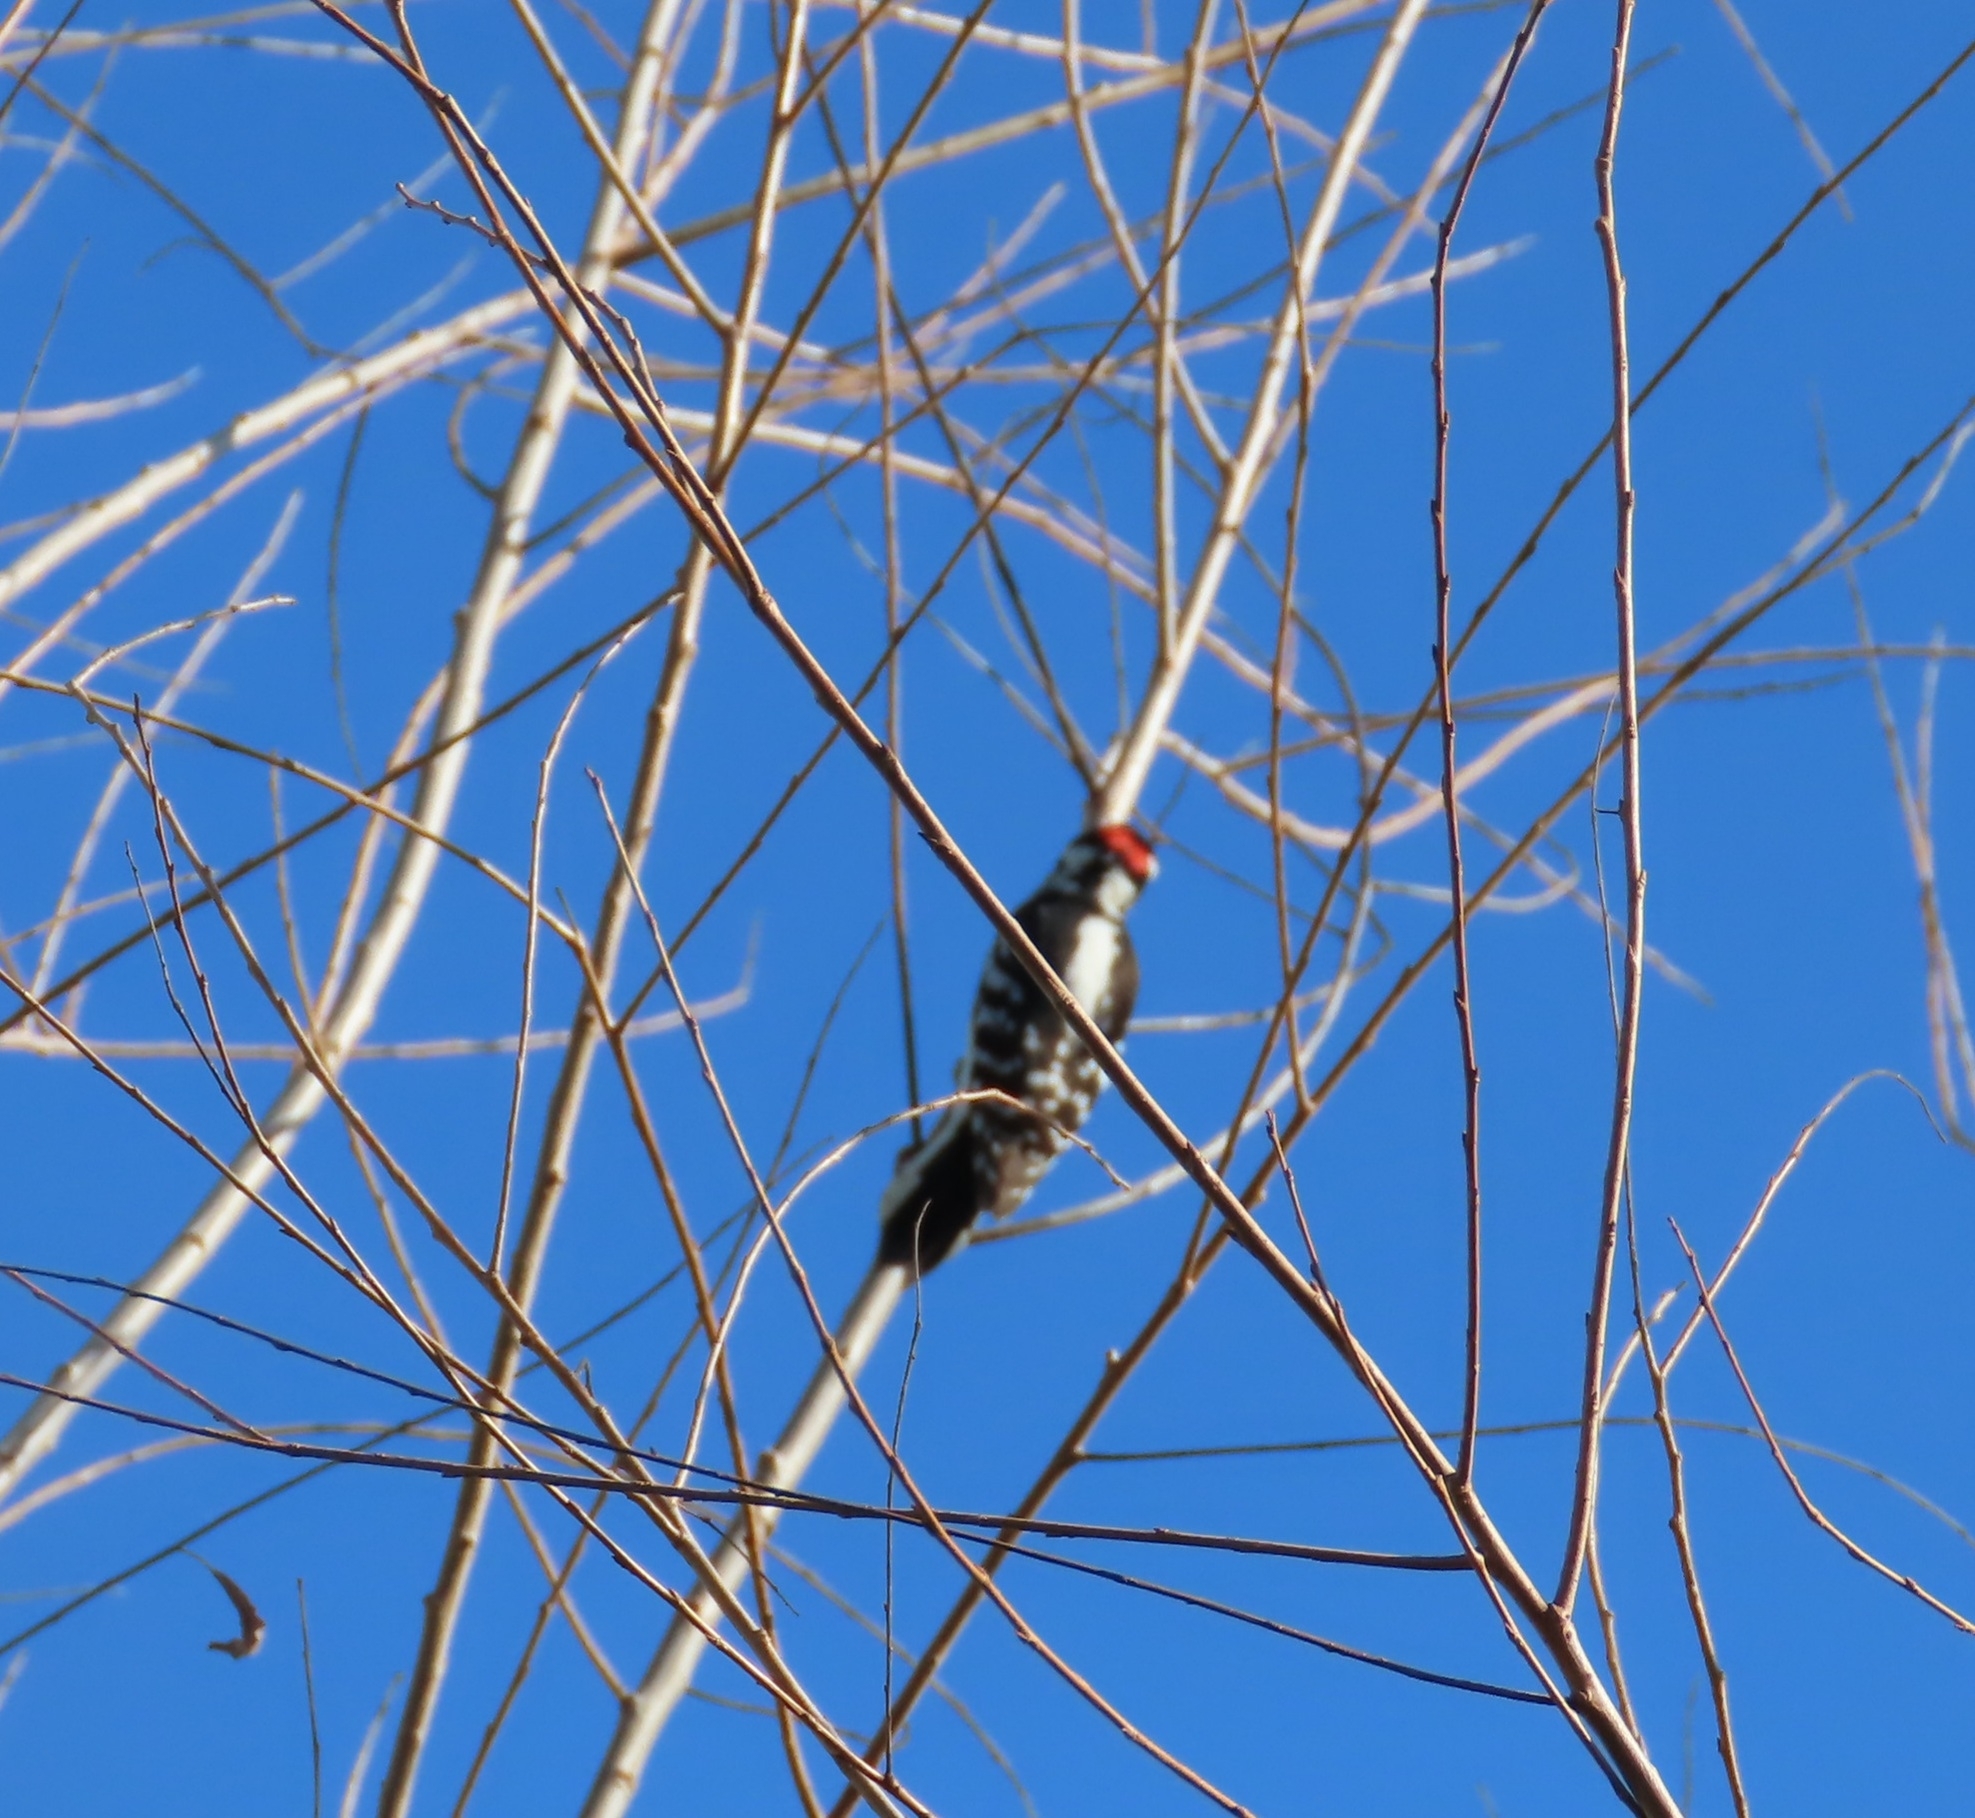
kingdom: Animalia
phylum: Chordata
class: Aves
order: Piciformes
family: Picidae
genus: Dryobates
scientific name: Dryobates pubescens
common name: Downy woodpecker
